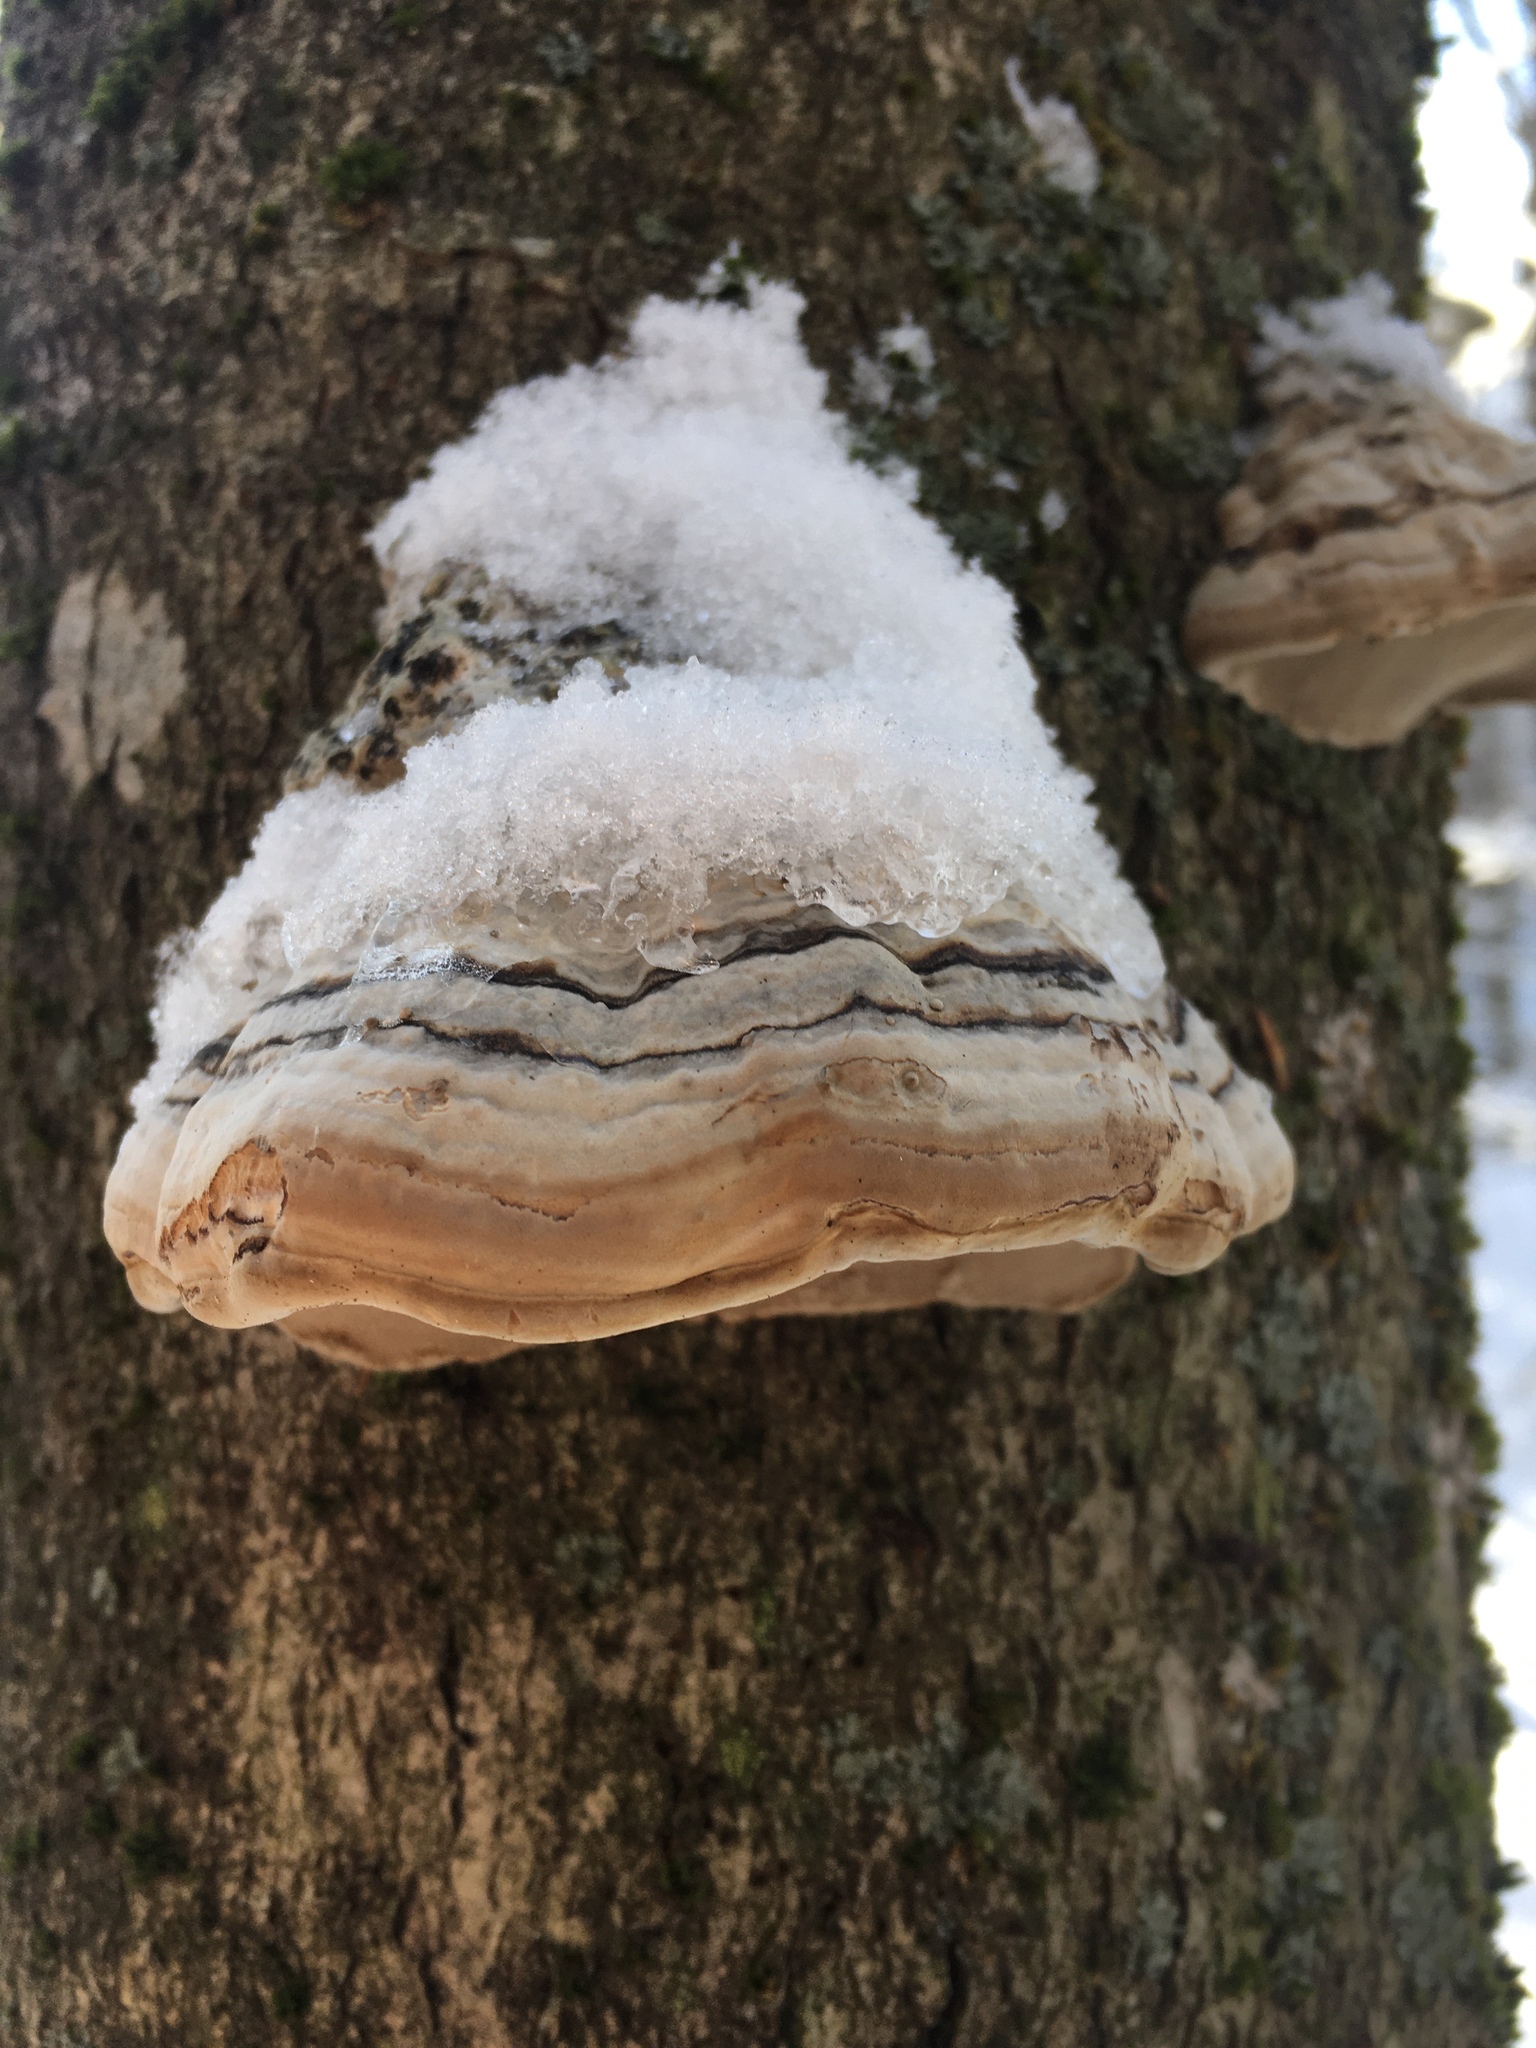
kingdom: Fungi
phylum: Basidiomycota
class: Agaricomycetes
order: Polyporales
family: Polyporaceae
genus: Fomes
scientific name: Fomes fomentarius
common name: Hoof fungus
